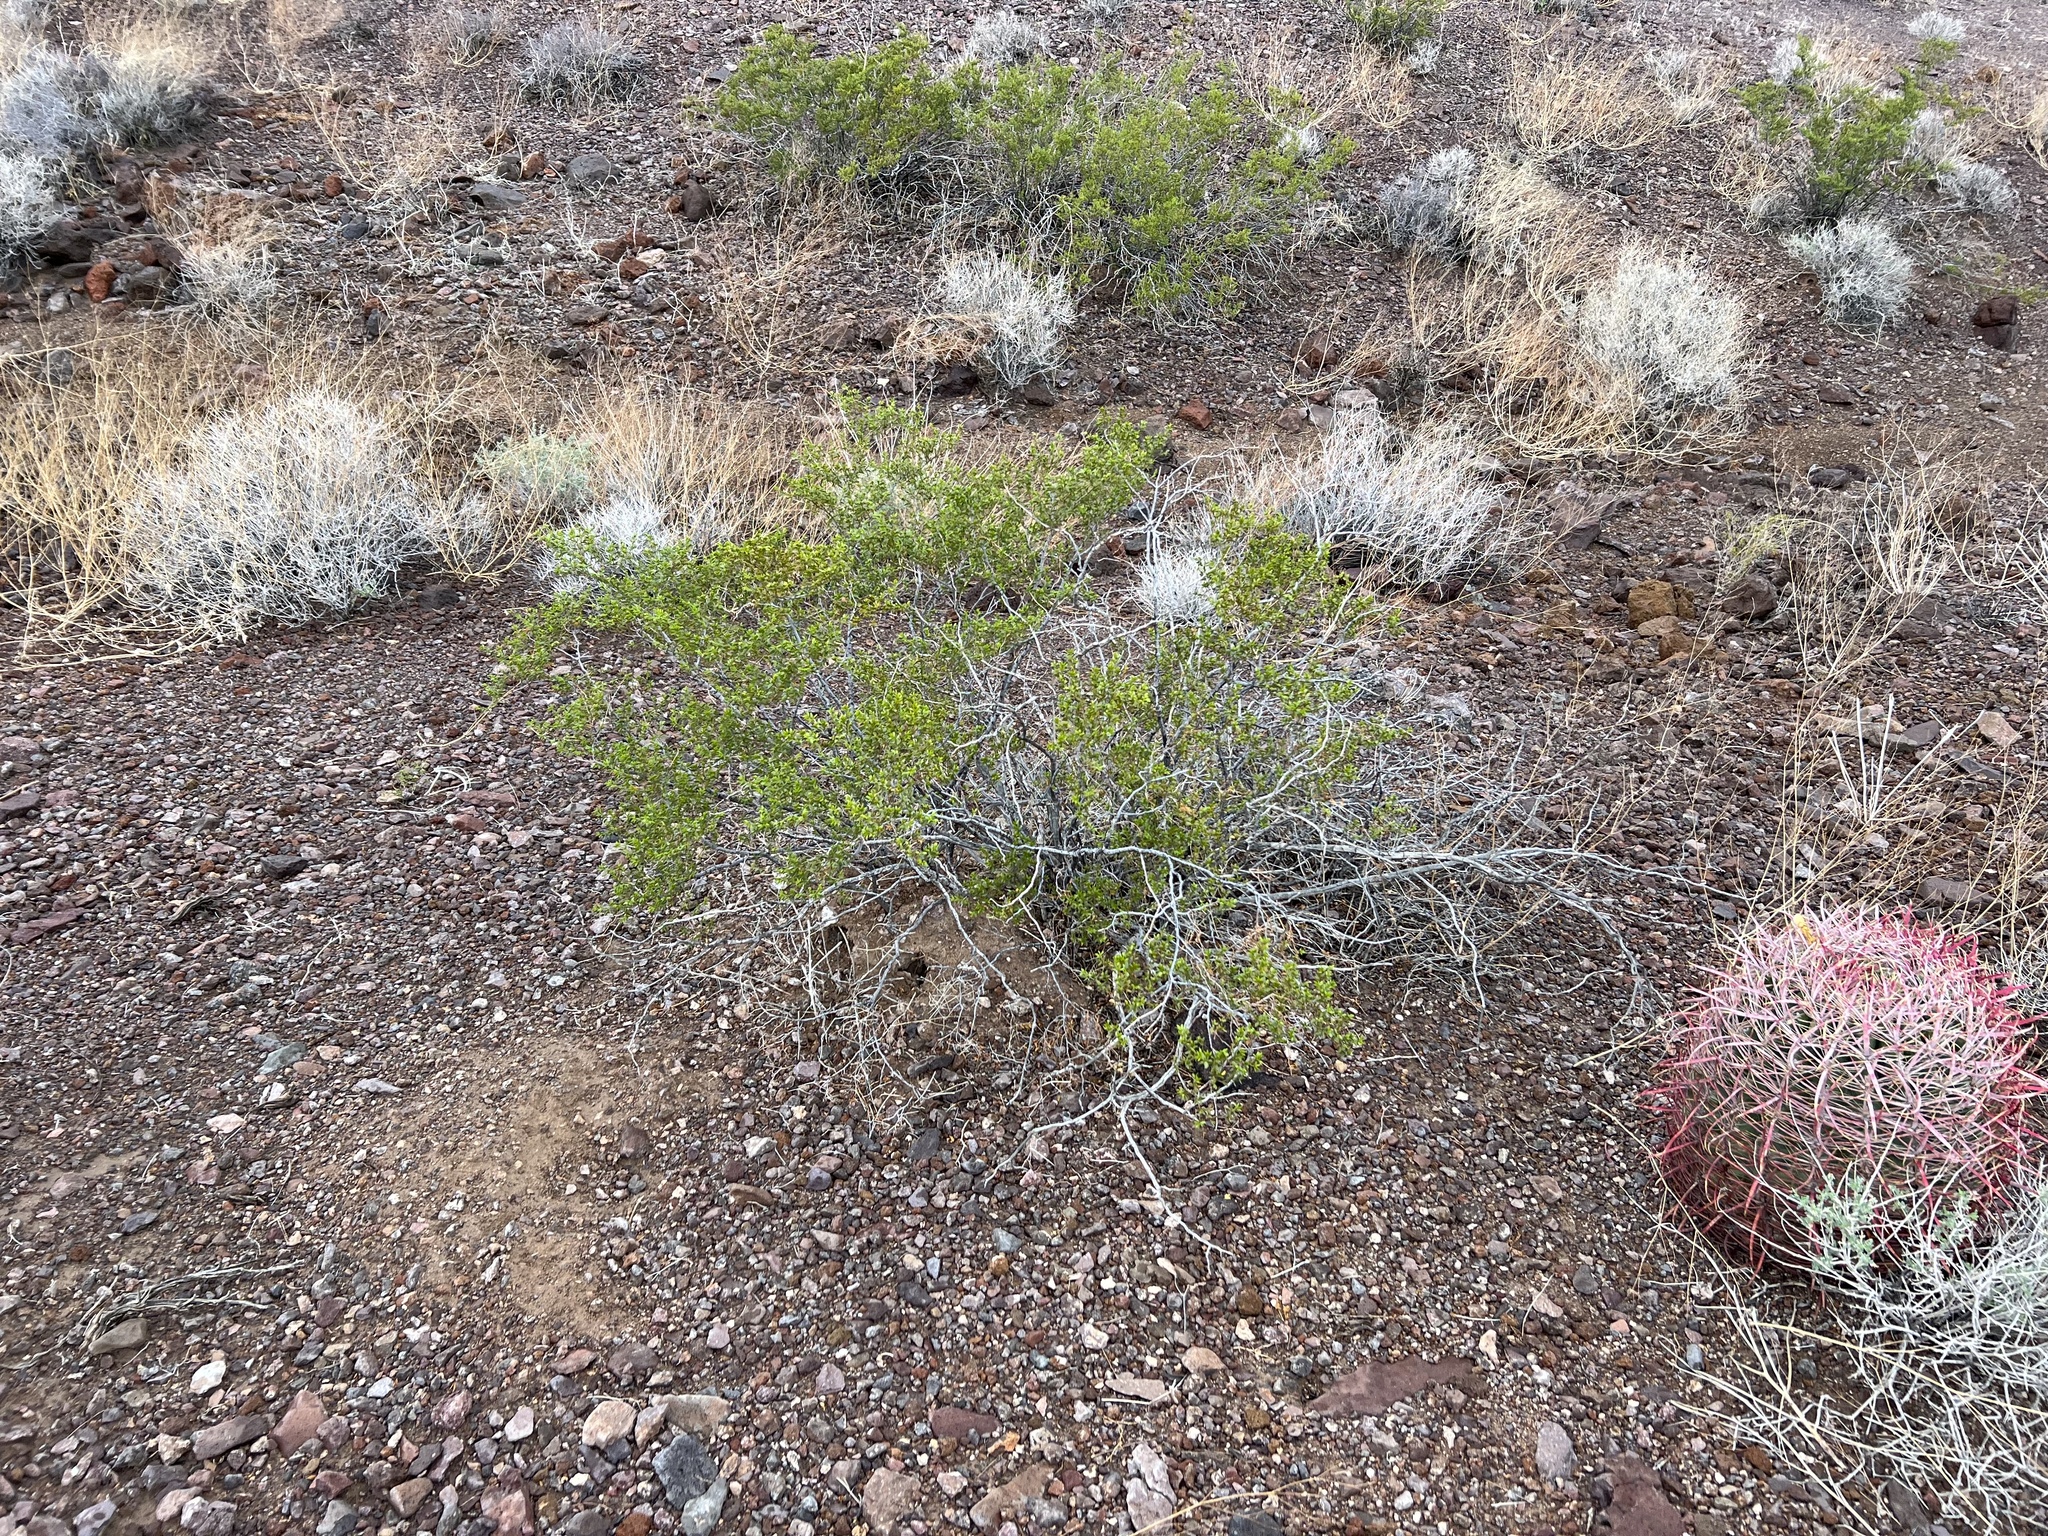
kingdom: Plantae
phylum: Tracheophyta
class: Magnoliopsida
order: Zygophyllales
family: Zygophyllaceae
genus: Larrea
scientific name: Larrea tridentata
